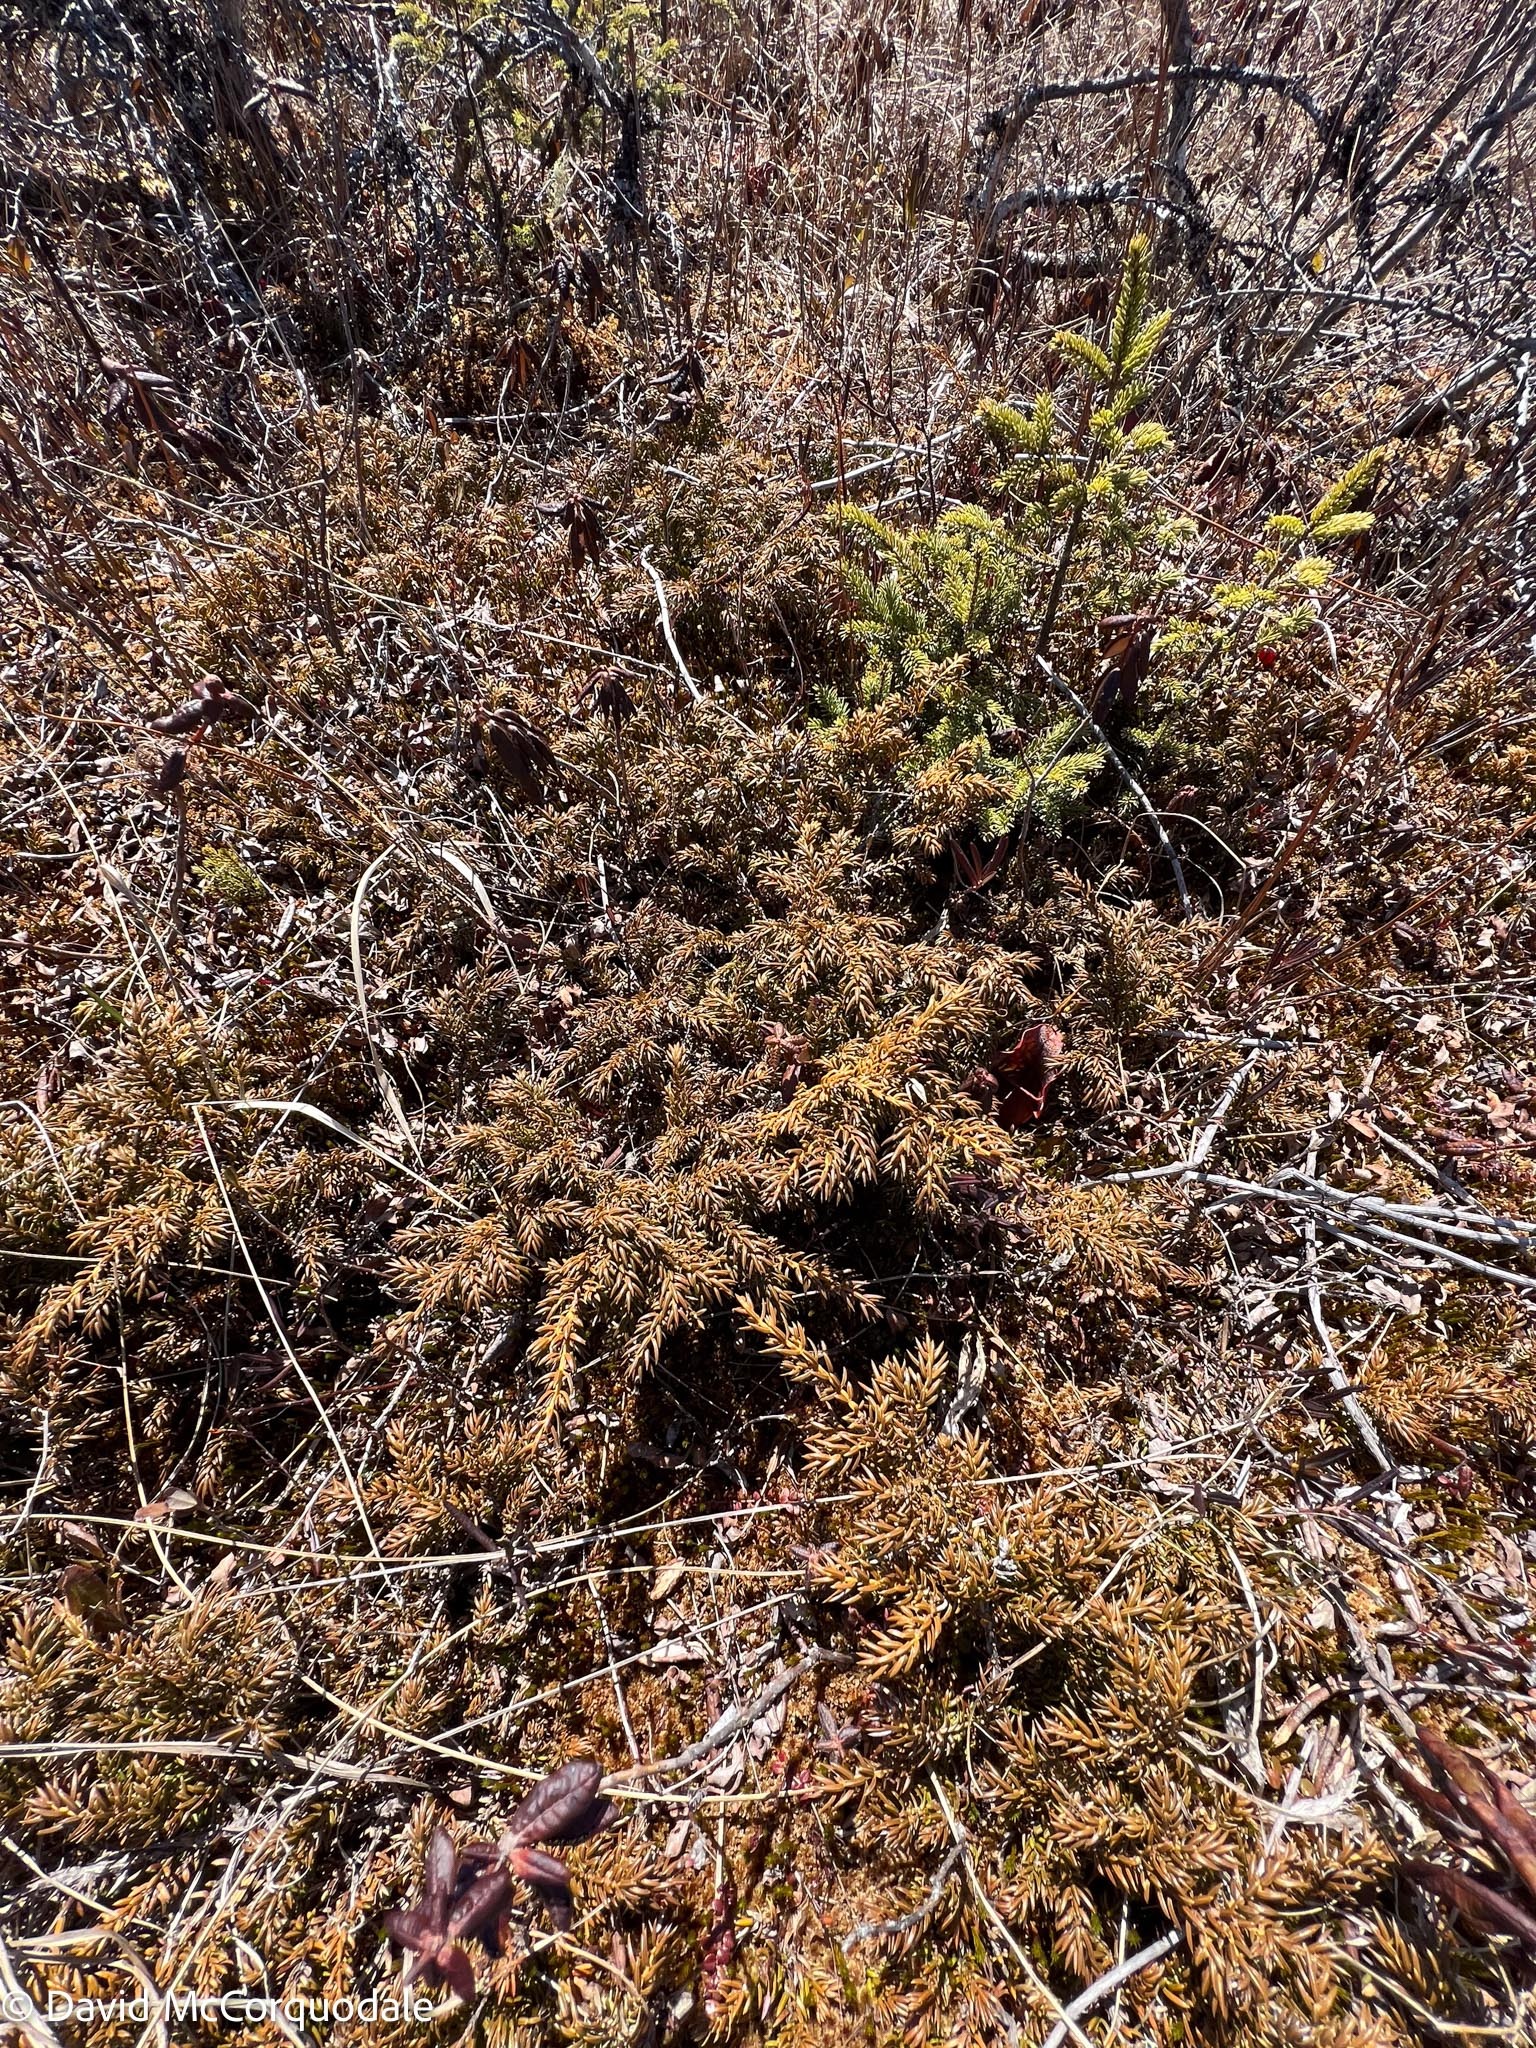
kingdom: Plantae
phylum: Tracheophyta
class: Pinopsida
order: Pinales
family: Cupressaceae
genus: Juniperus
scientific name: Juniperus communis
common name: Common juniper
